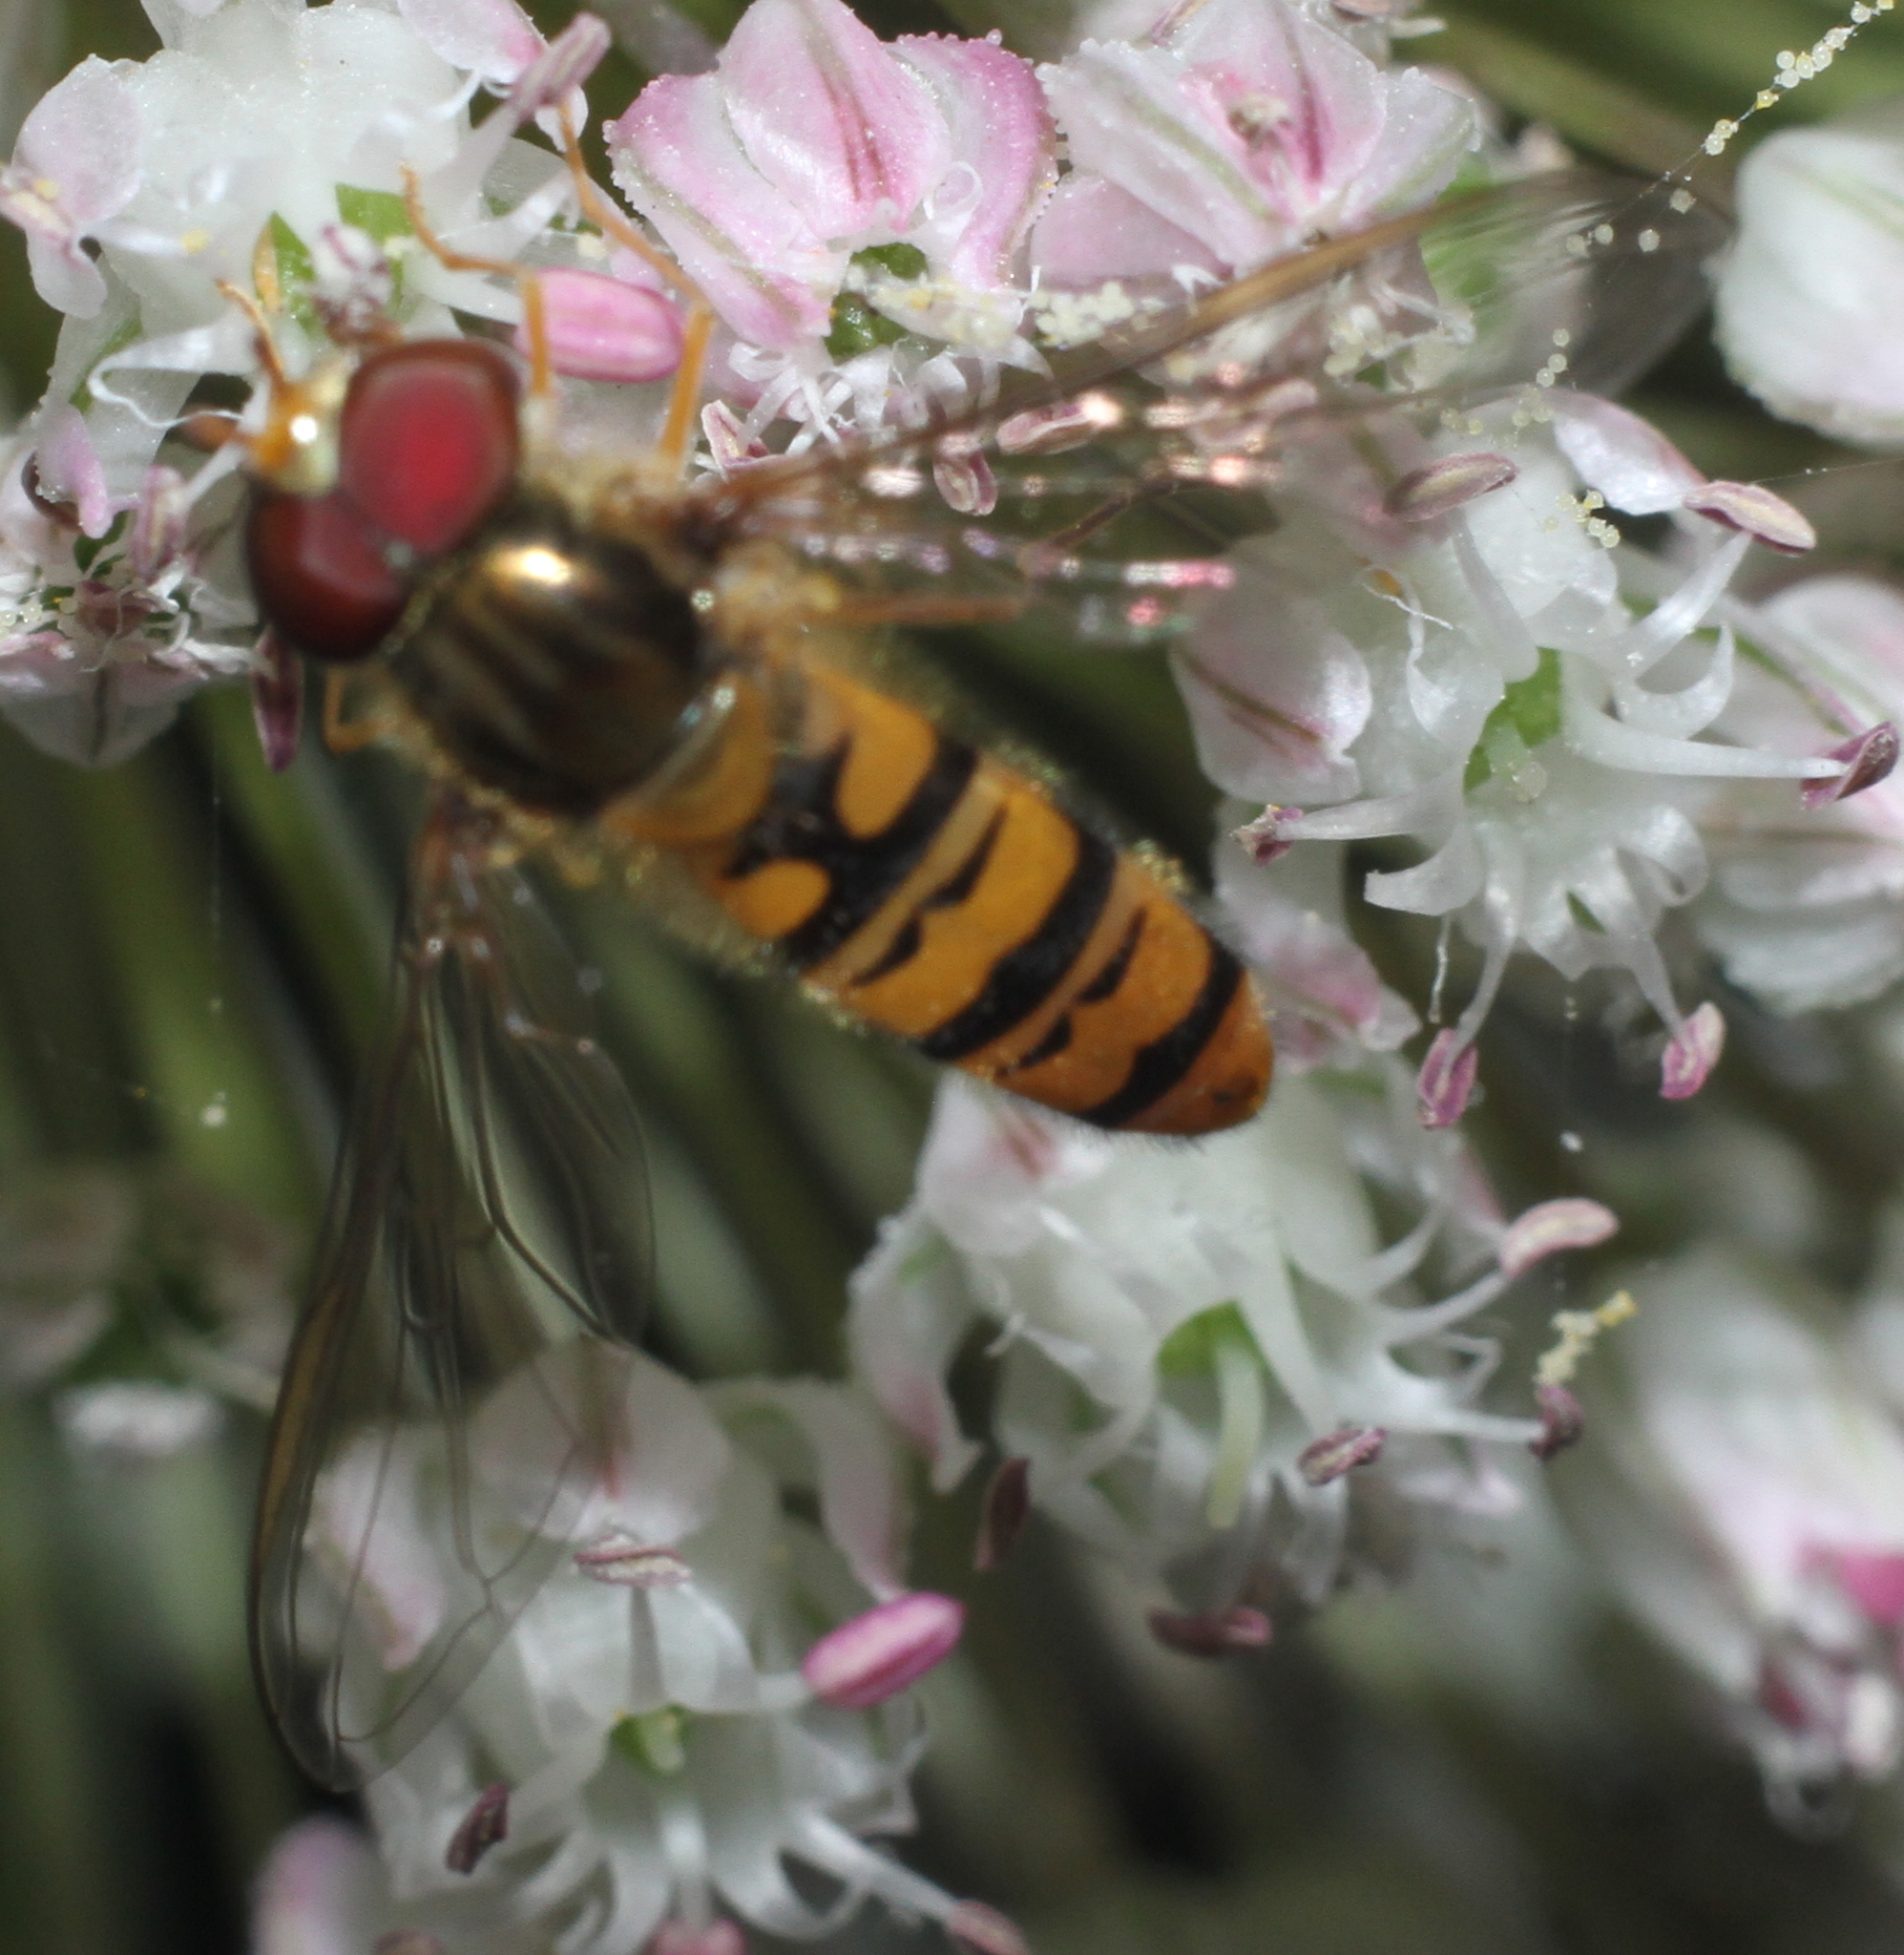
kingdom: Animalia
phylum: Arthropoda
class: Insecta
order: Diptera
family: Syrphidae
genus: Episyrphus
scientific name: Episyrphus balteatus
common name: Marmalade hoverfly
